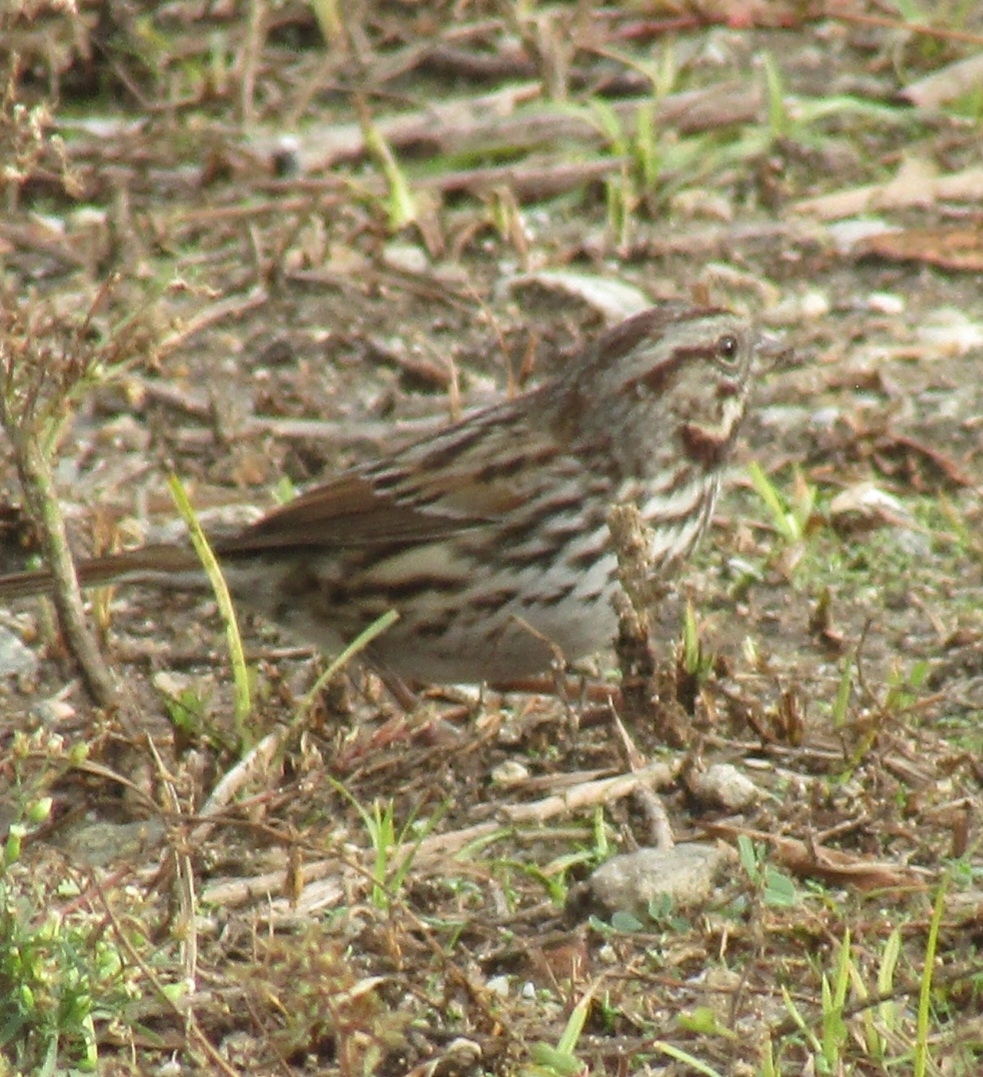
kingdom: Animalia
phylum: Chordata
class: Aves
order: Passeriformes
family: Passerellidae
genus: Melospiza
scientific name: Melospiza melodia
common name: Song sparrow
